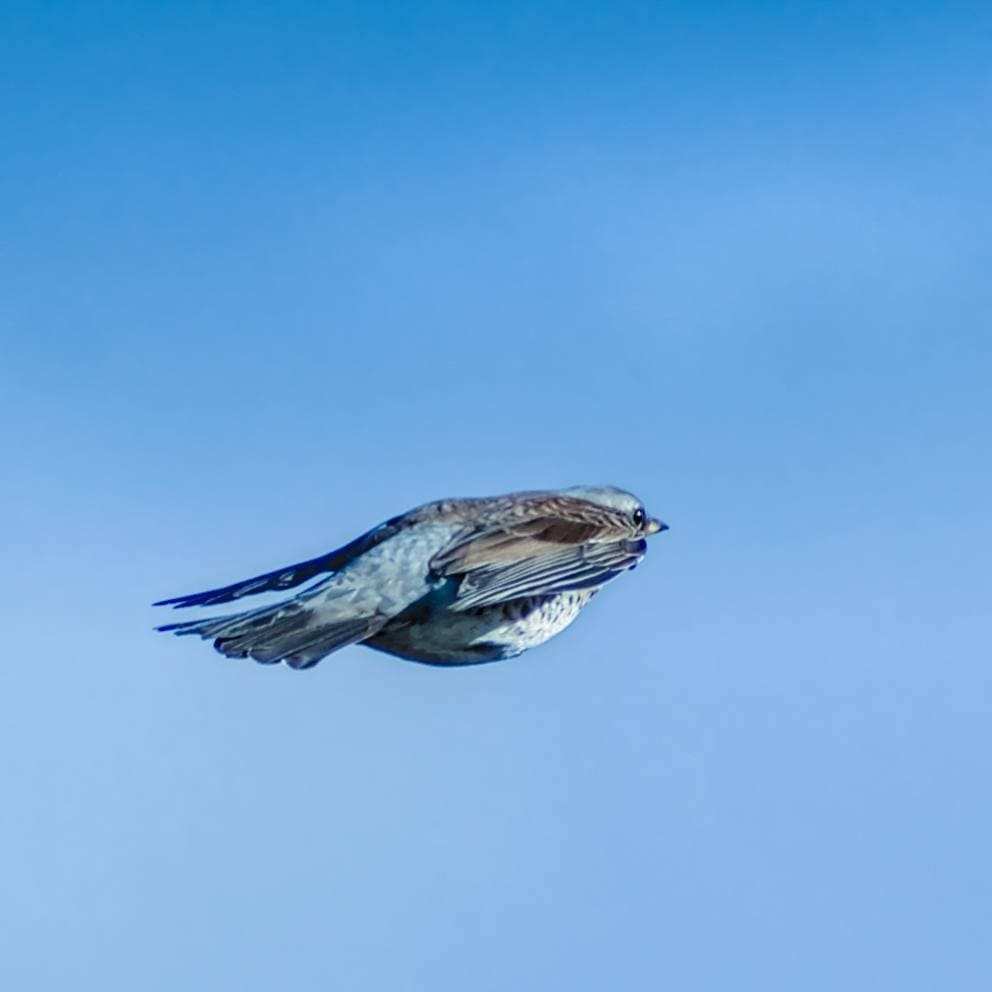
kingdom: Animalia
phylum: Chordata
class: Aves
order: Passeriformes
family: Turdidae
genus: Turdus
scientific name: Turdus pilaris
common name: Fieldfare
